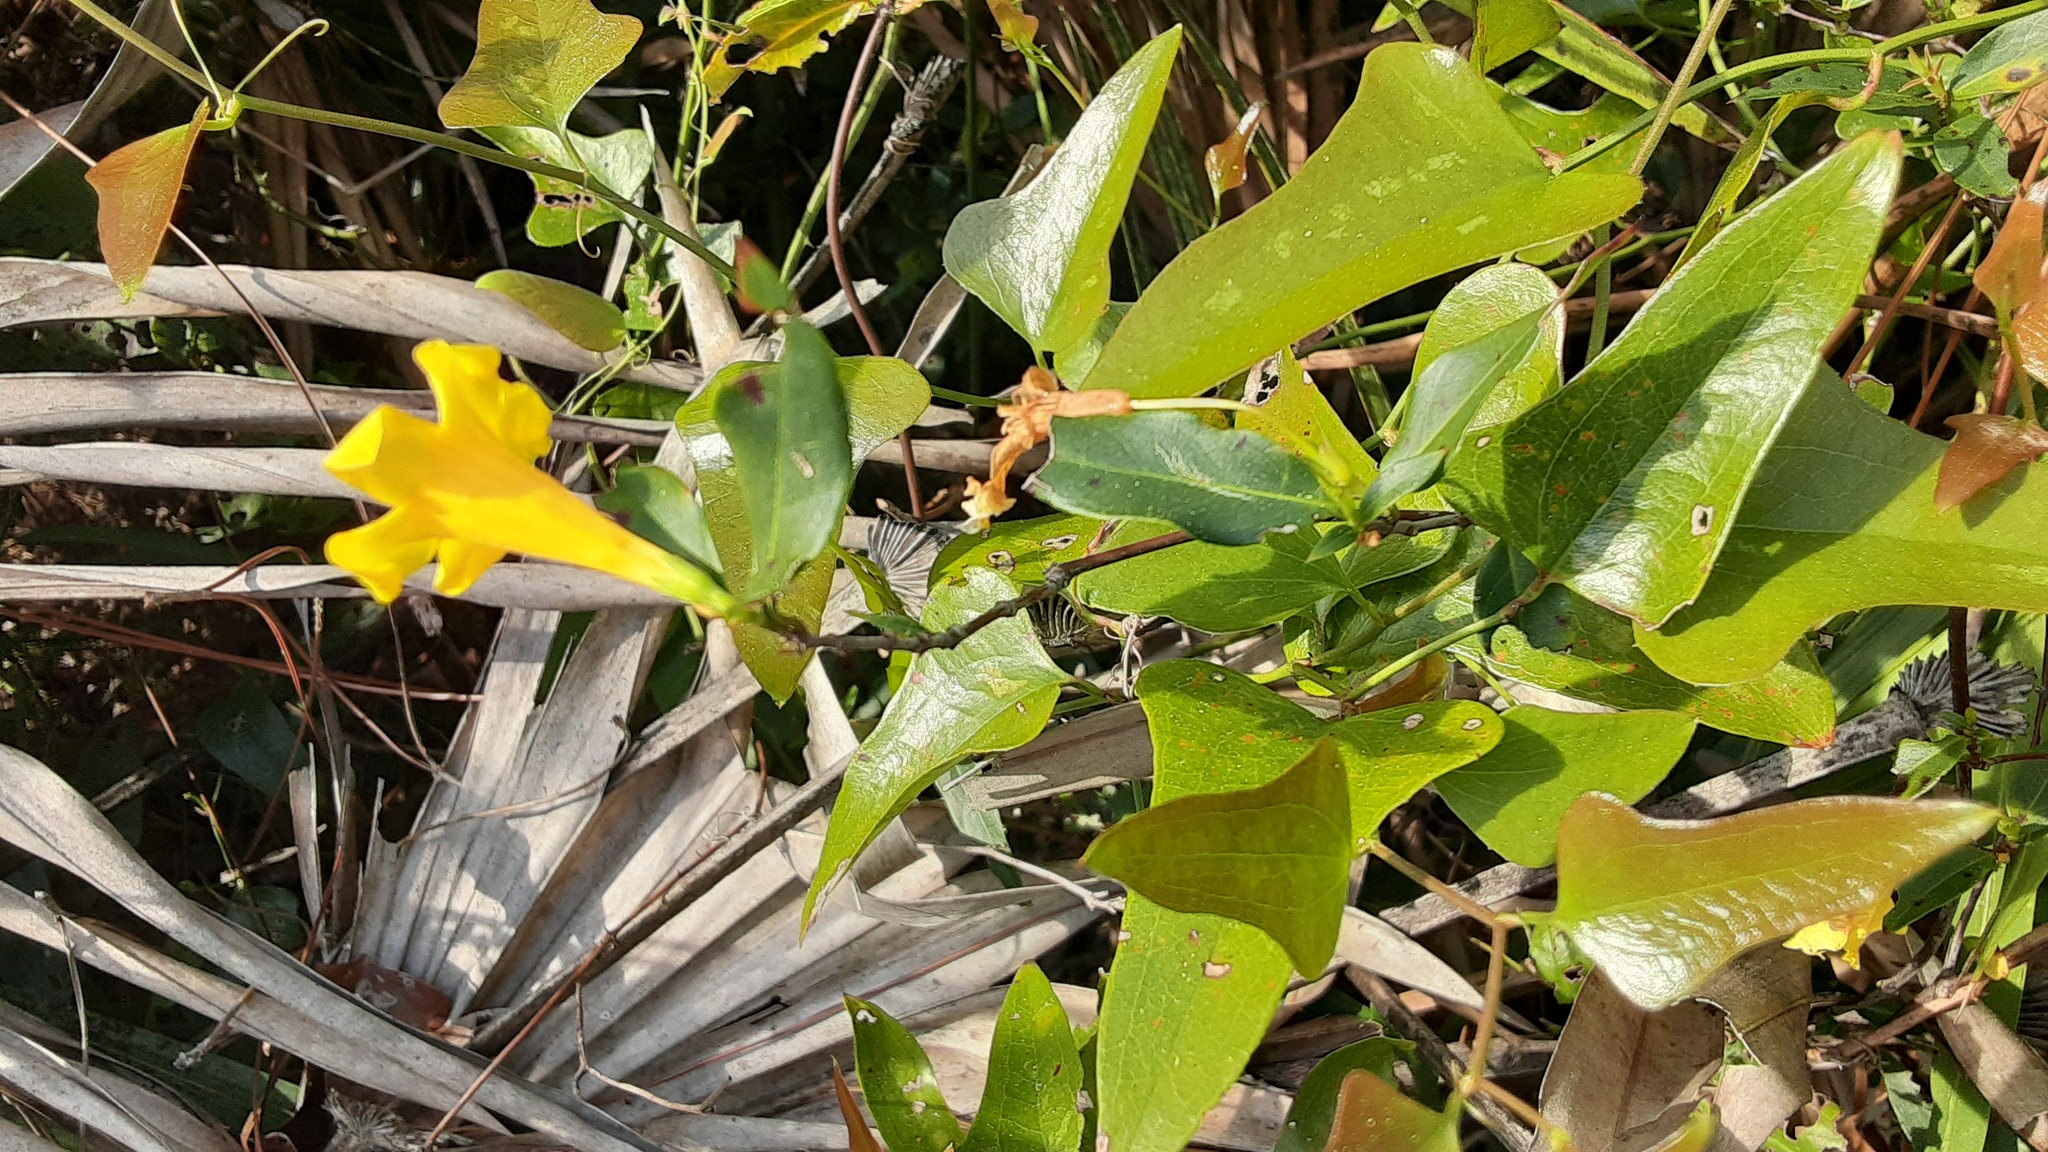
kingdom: Plantae
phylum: Tracheophyta
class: Liliopsida
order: Liliales
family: Smilacaceae
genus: Smilax
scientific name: Smilax bona-nox
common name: Catbrier
